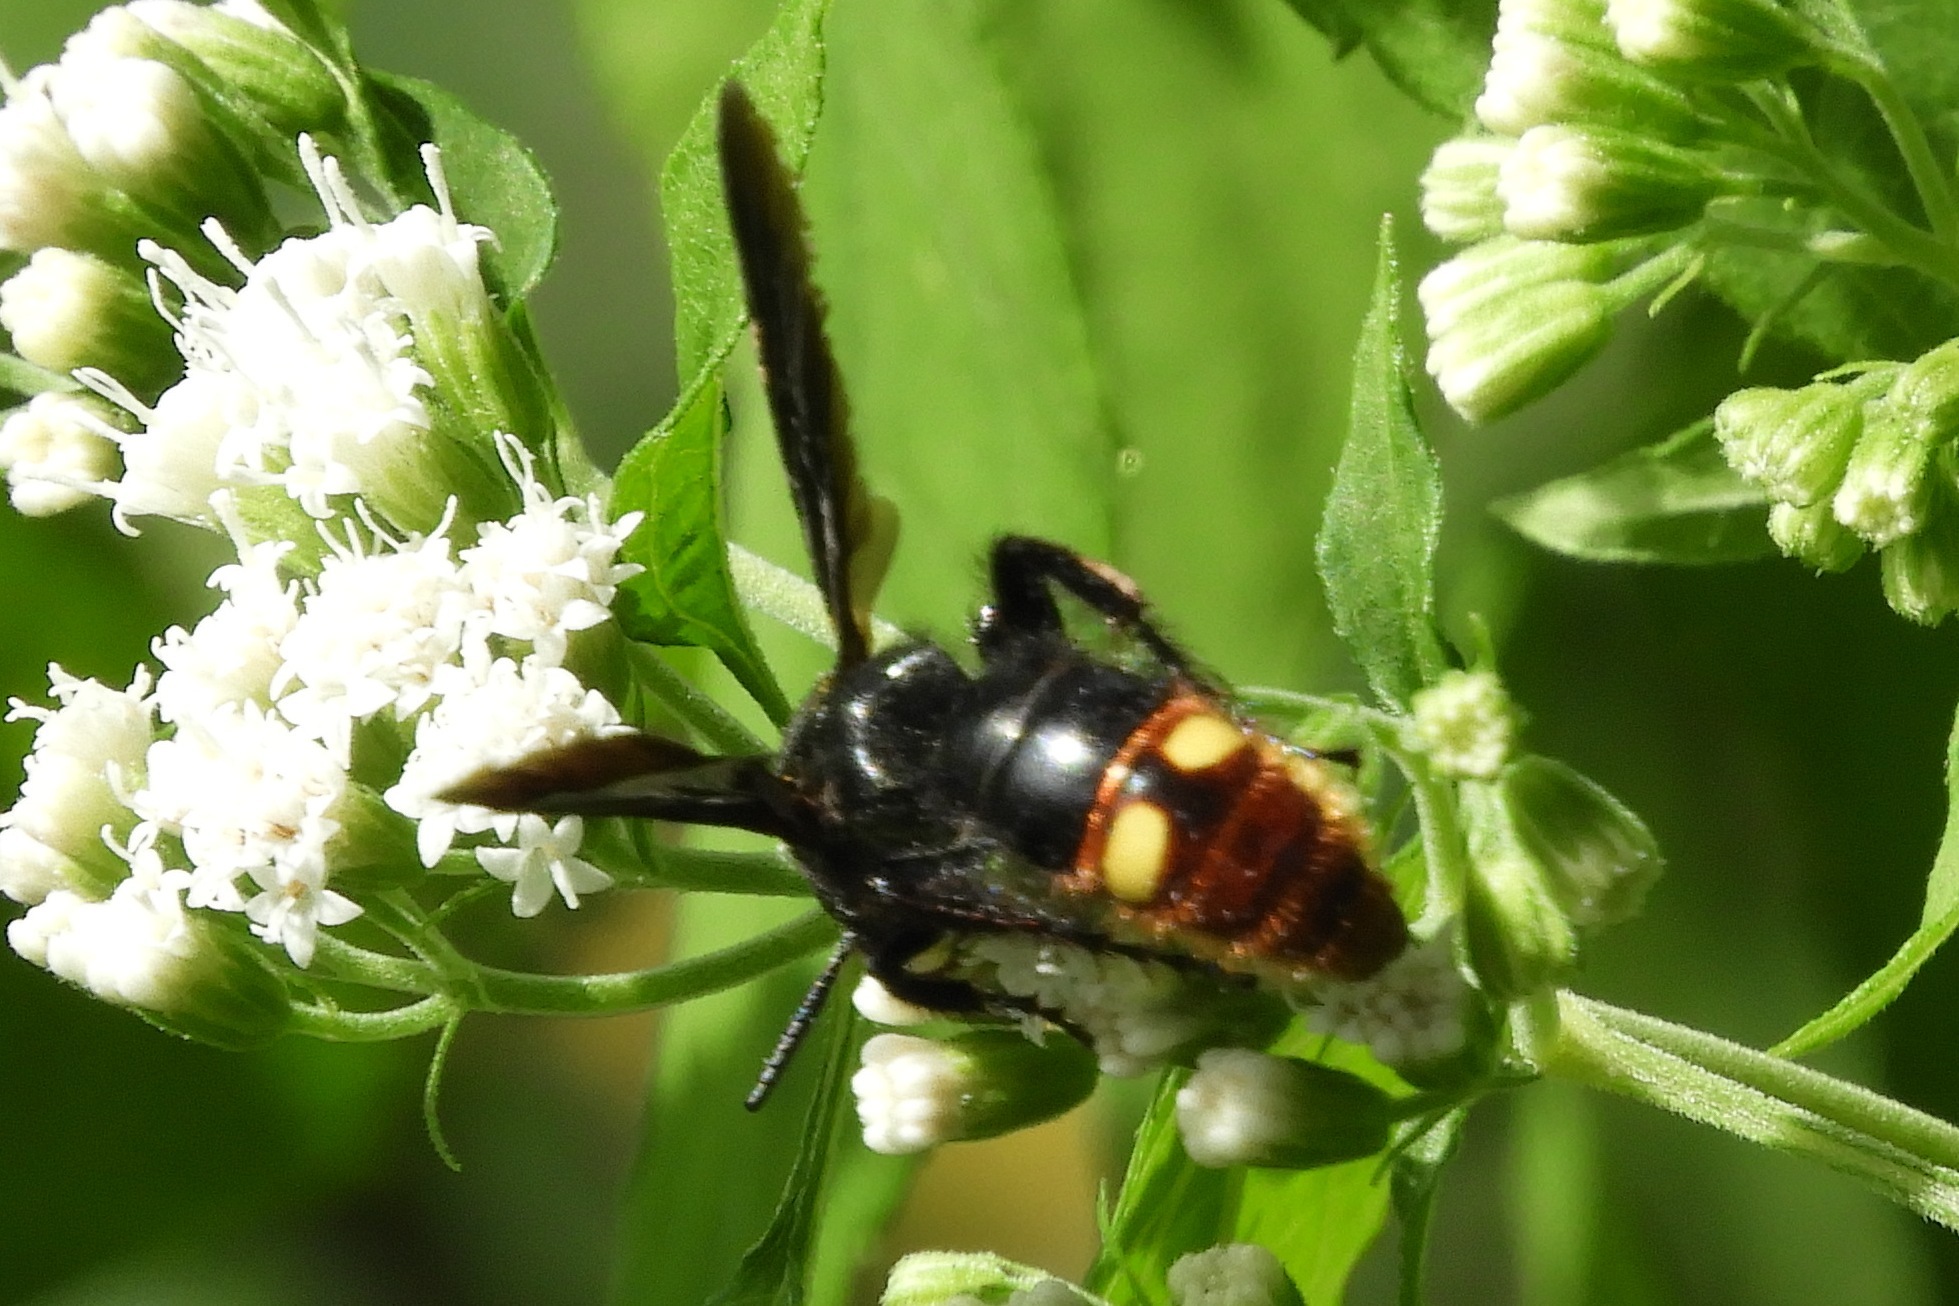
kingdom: Animalia
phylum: Arthropoda
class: Insecta
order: Hymenoptera
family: Scoliidae
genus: Scolia
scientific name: Scolia dubia
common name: Blue-winged scoliid wasp
